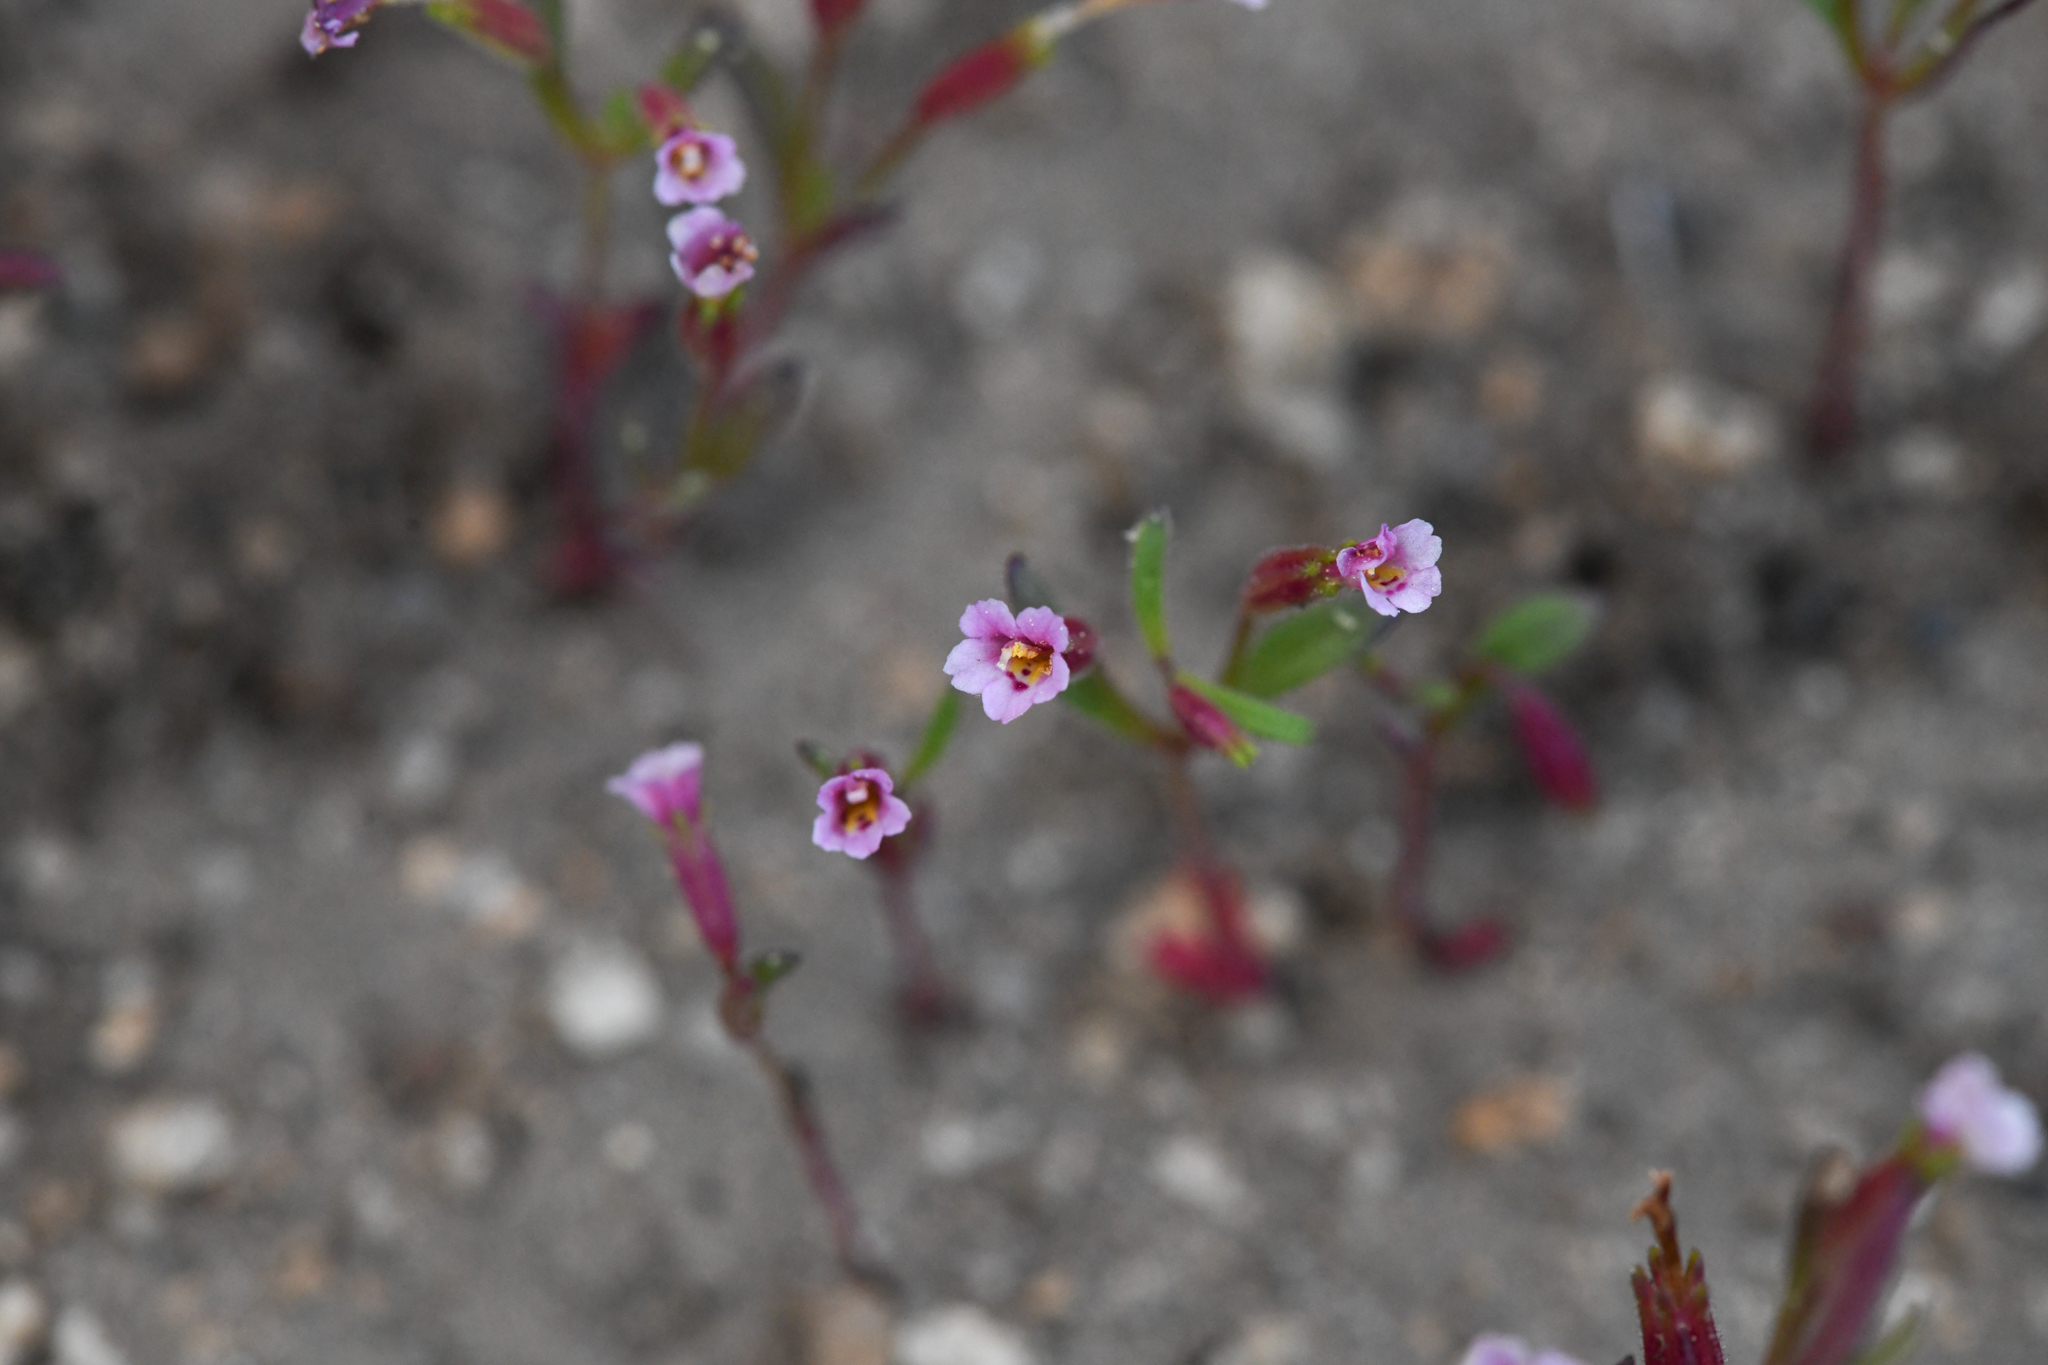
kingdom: Plantae
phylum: Tracheophyta
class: Magnoliopsida
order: Lamiales
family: Phrymaceae
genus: Erythranthe
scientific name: Erythranthe breweri
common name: Brewer's monkeyflower
